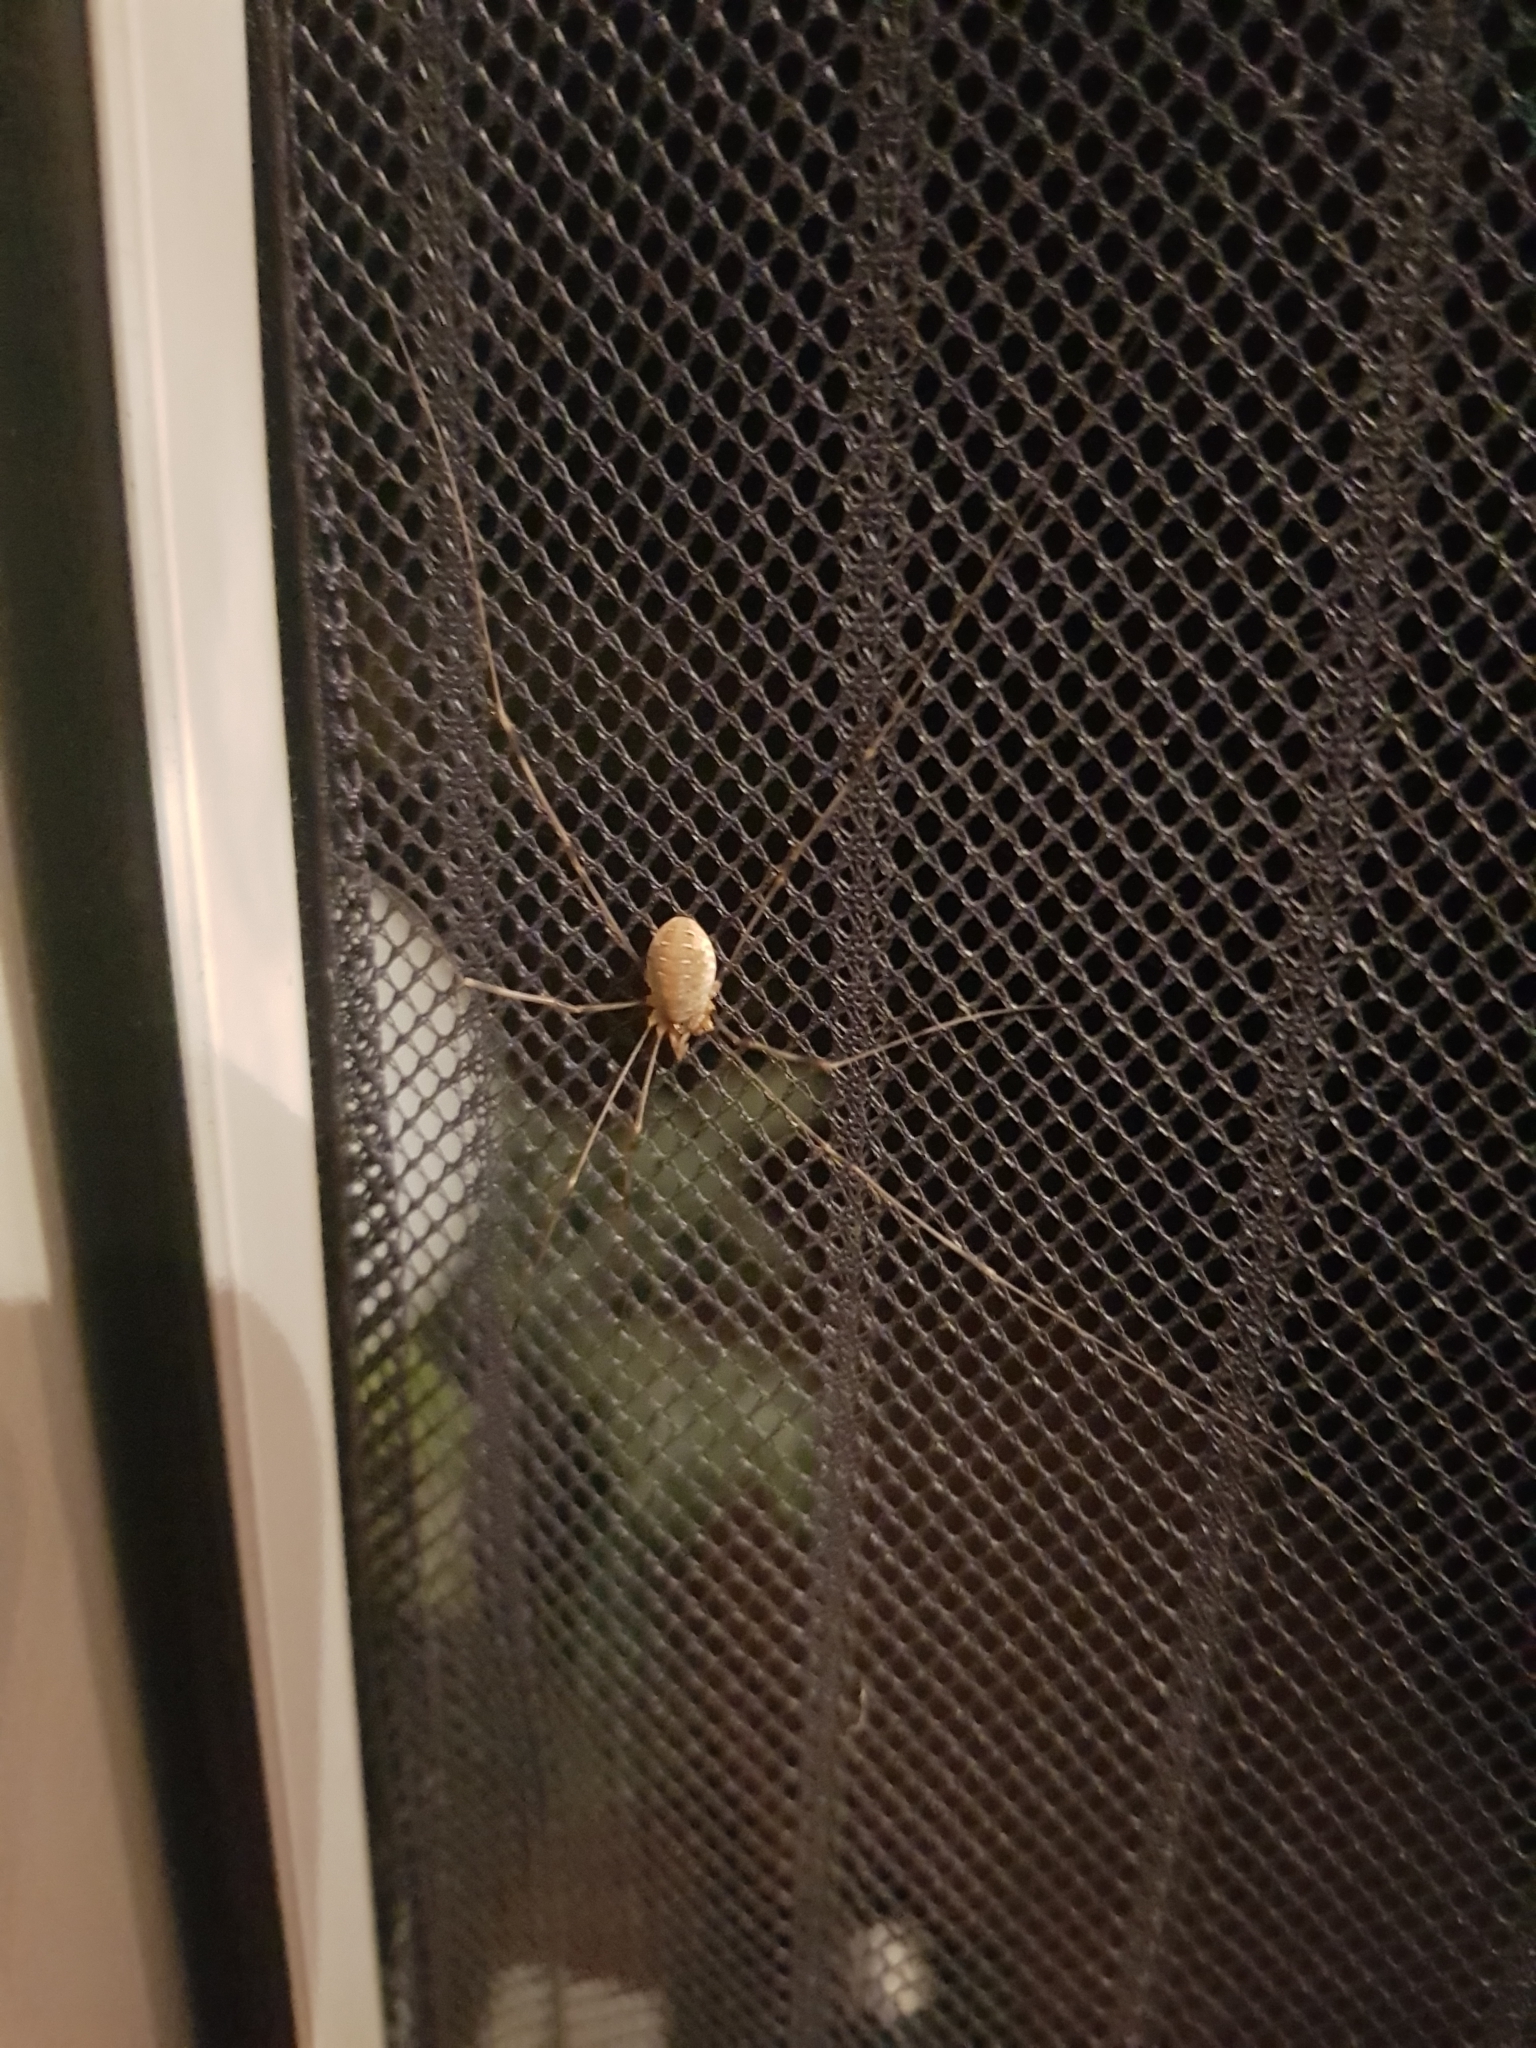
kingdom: Animalia
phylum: Arthropoda
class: Arachnida
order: Opiliones
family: Phalangiidae
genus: Opilio
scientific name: Opilio canestrinii
